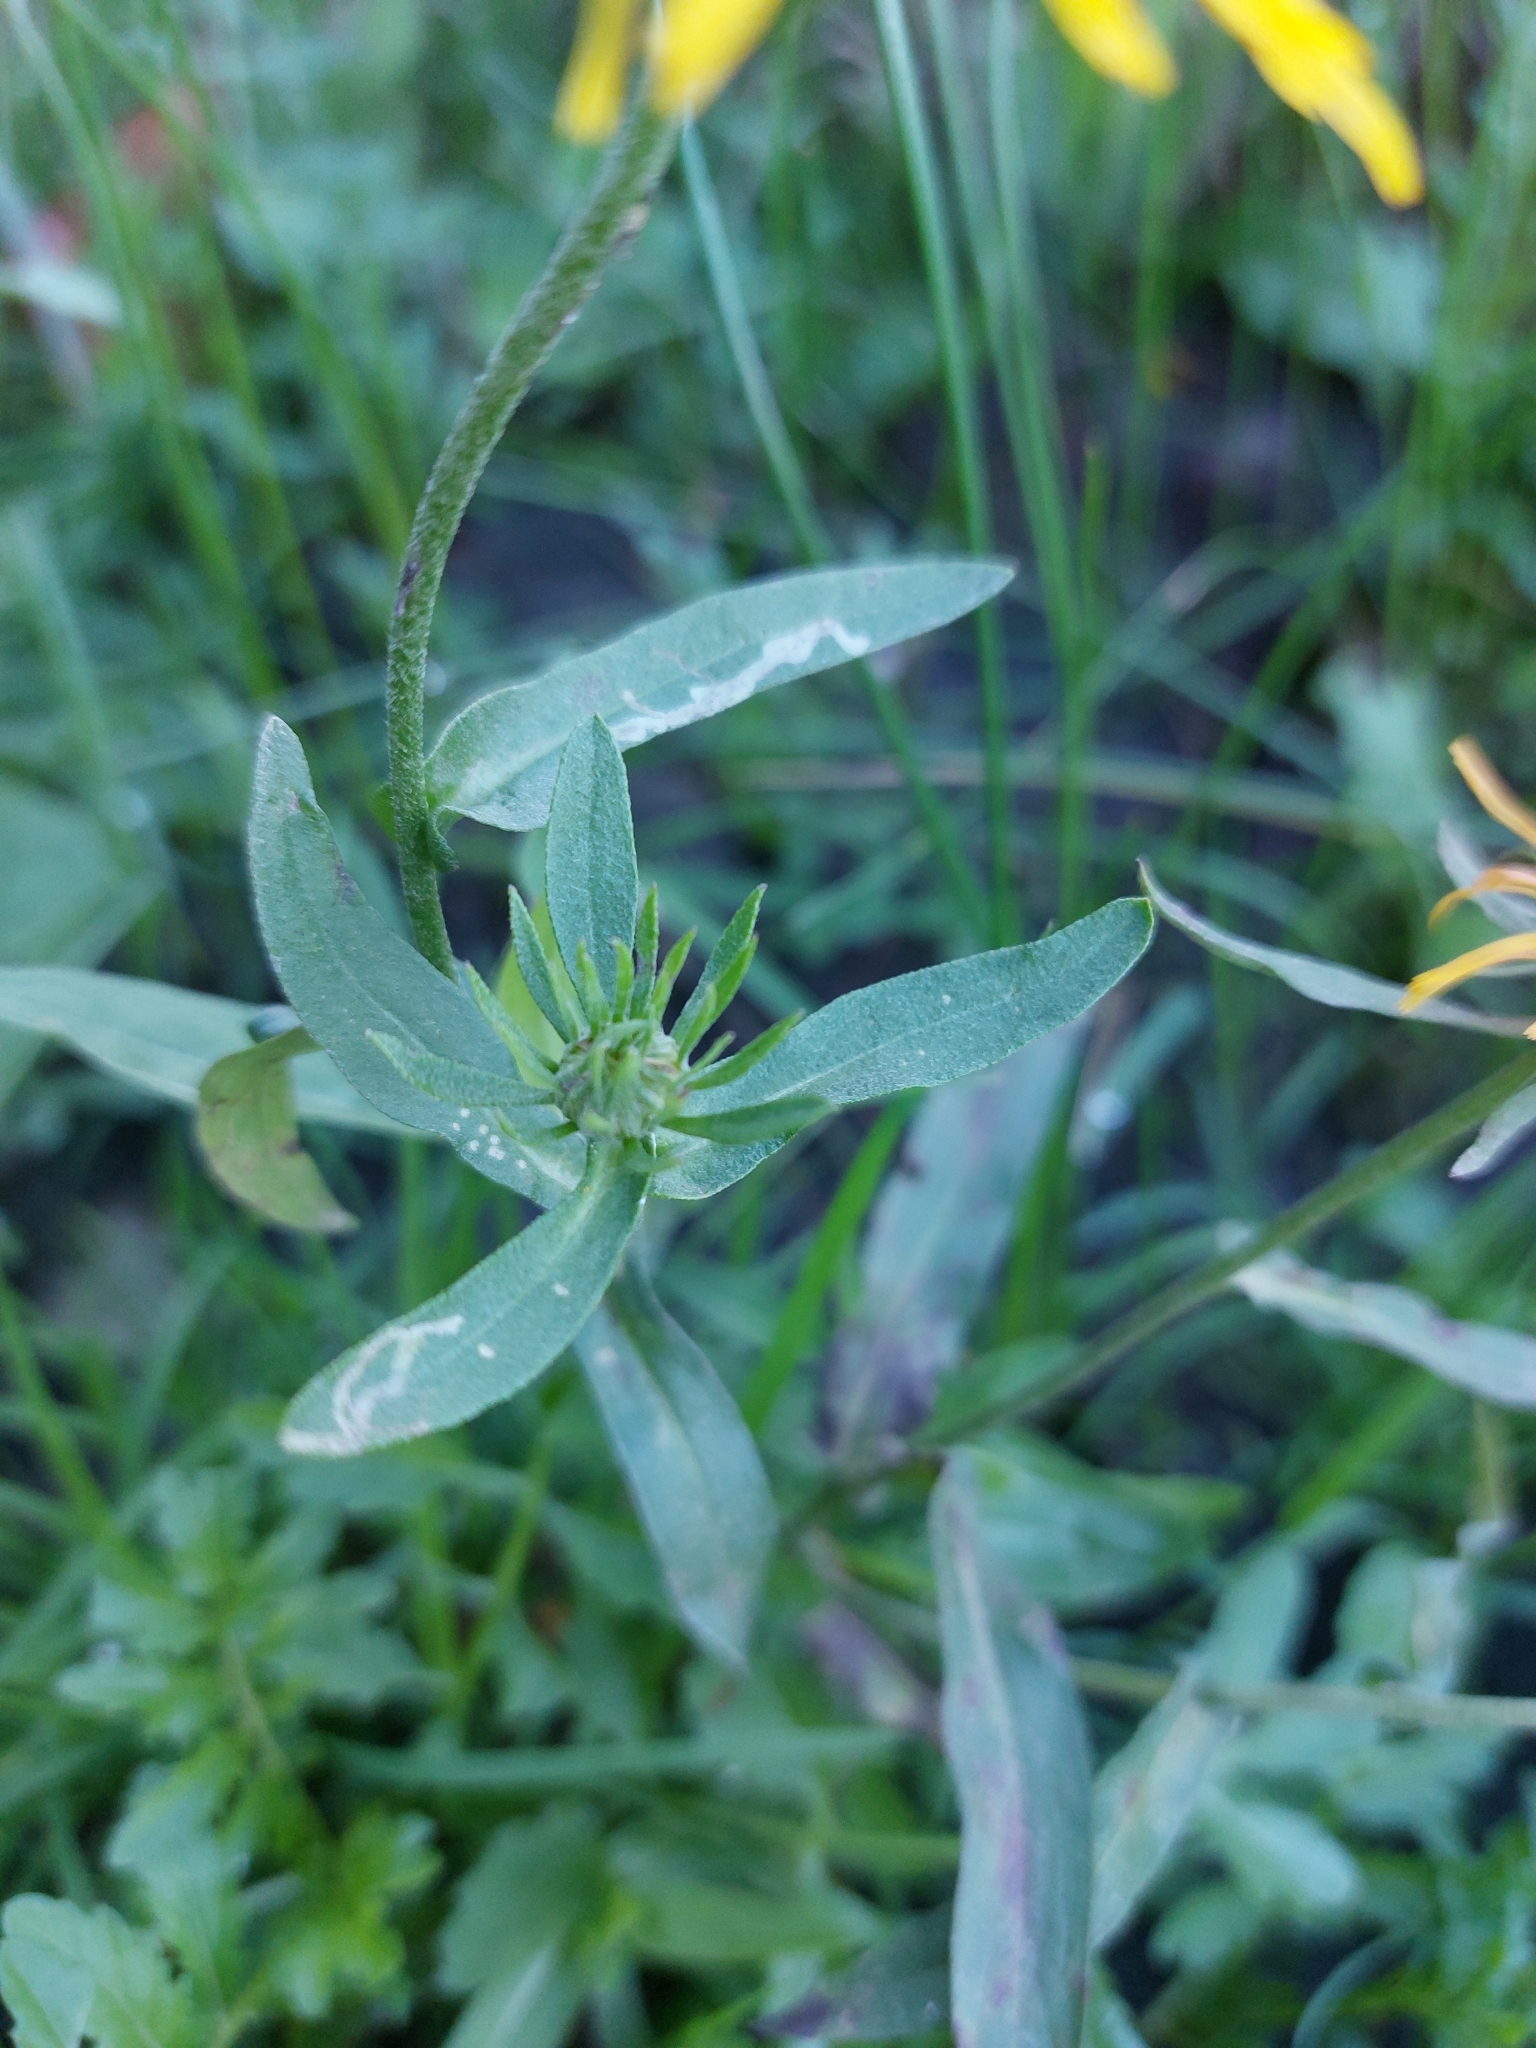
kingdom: Plantae
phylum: Tracheophyta
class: Magnoliopsida
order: Asterales
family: Asteraceae
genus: Pentanema
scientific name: Pentanema britannicum
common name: British elecampane
